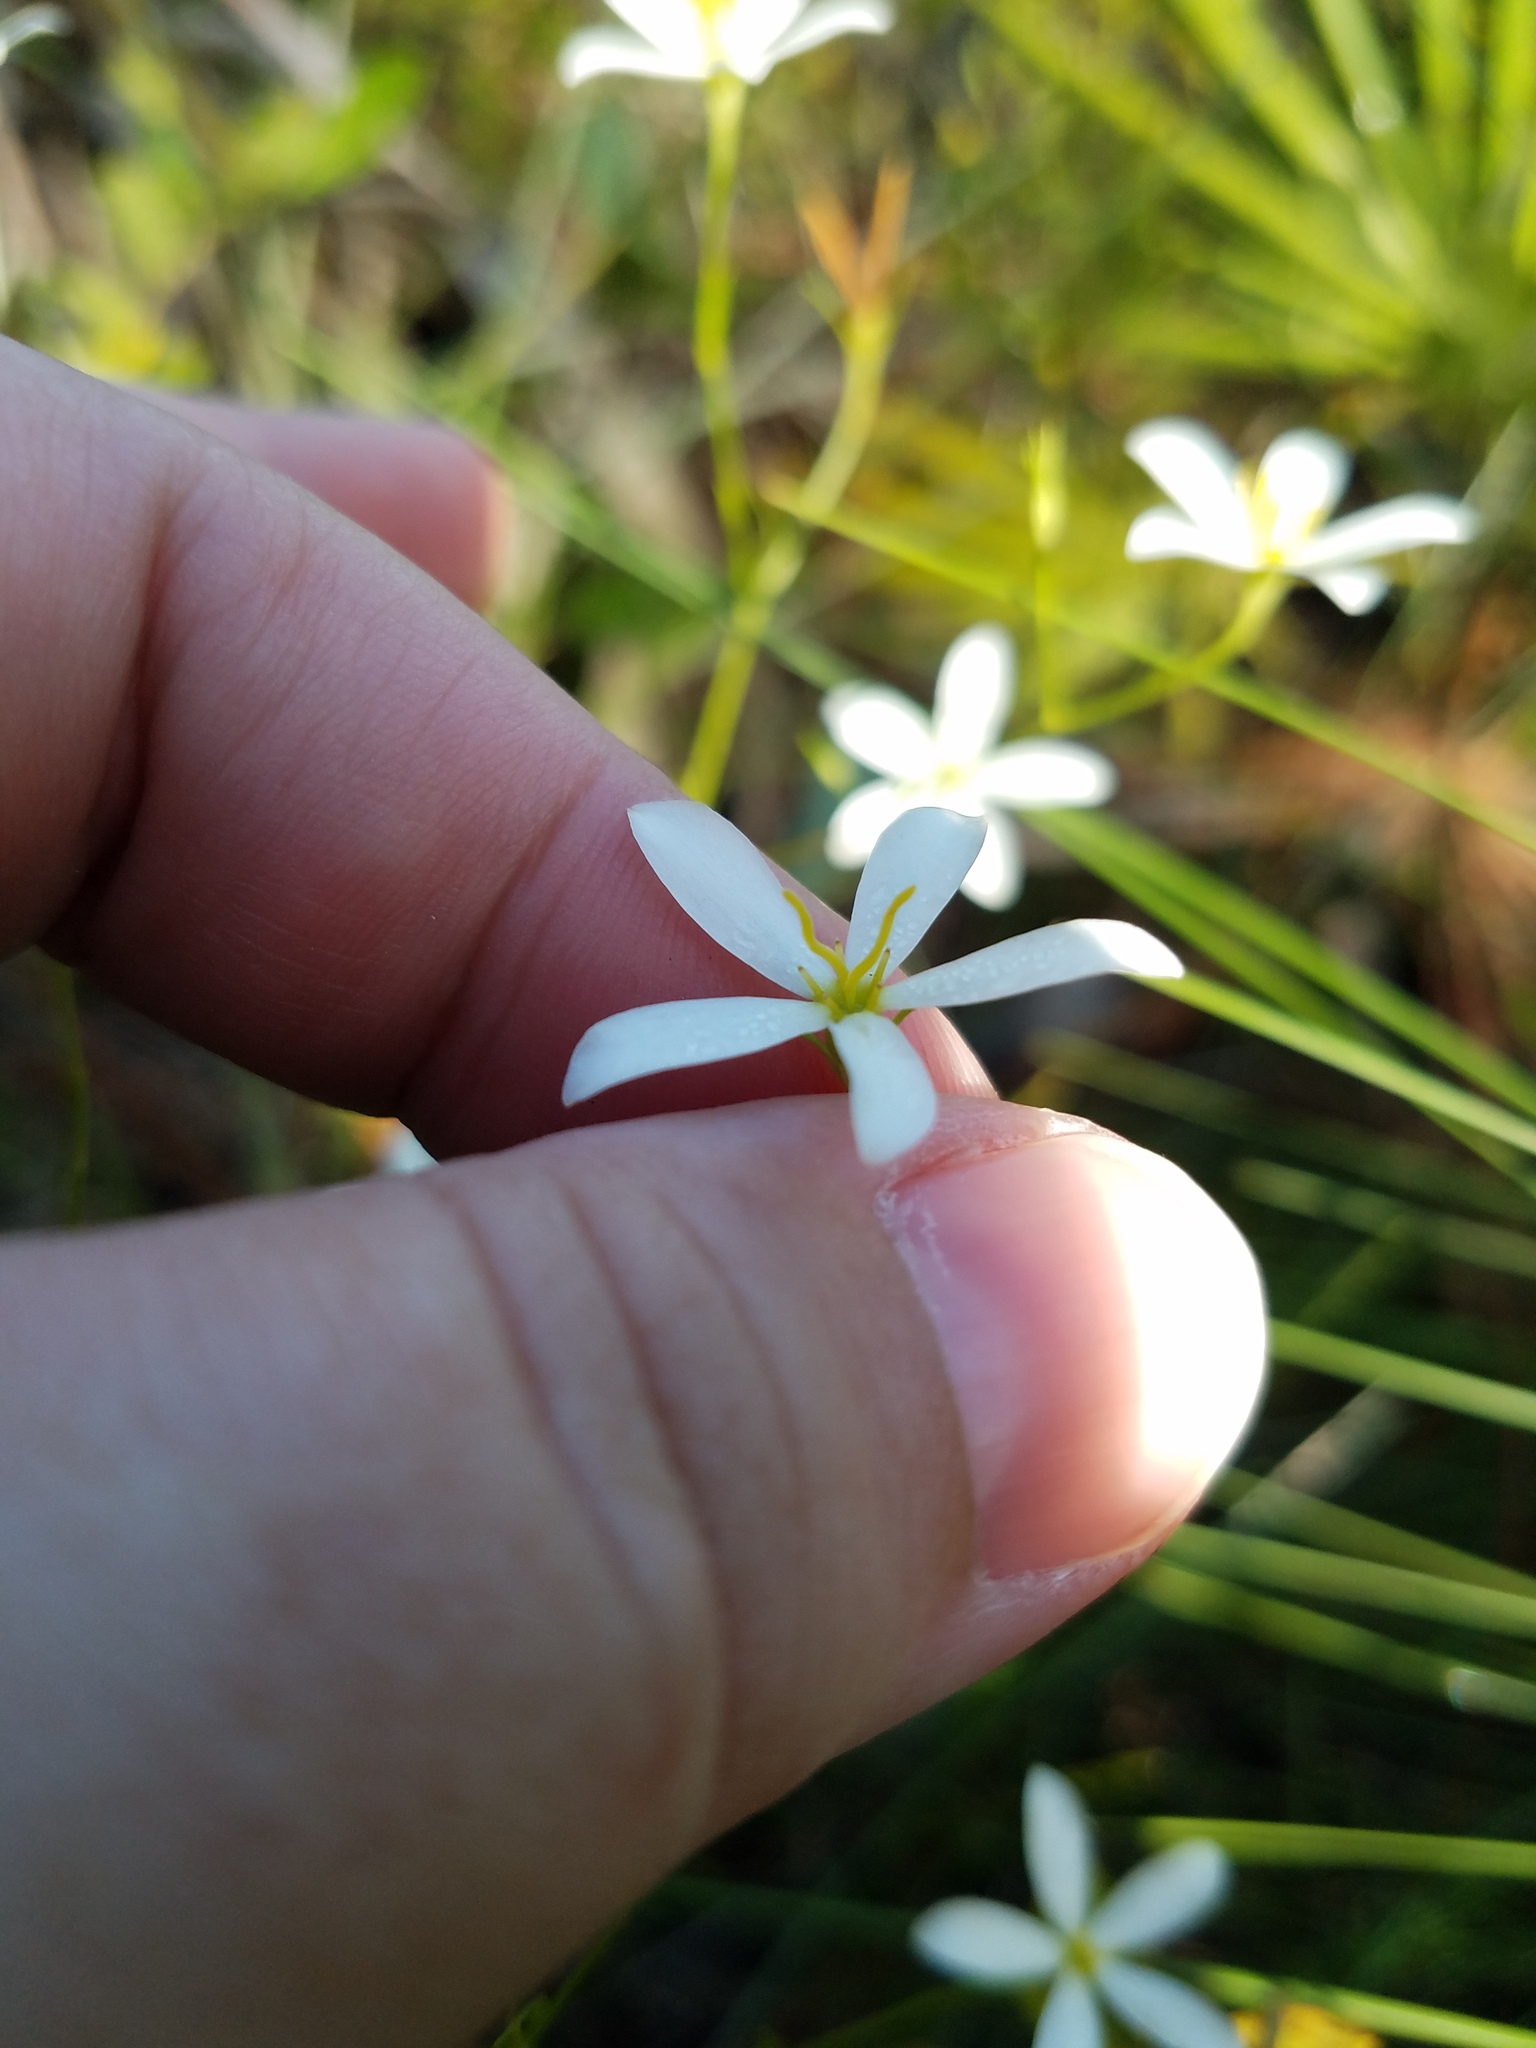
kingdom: Plantae
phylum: Tracheophyta
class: Magnoliopsida
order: Gentianales
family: Gentianaceae
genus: Sabatia
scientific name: Sabatia brevifolia
